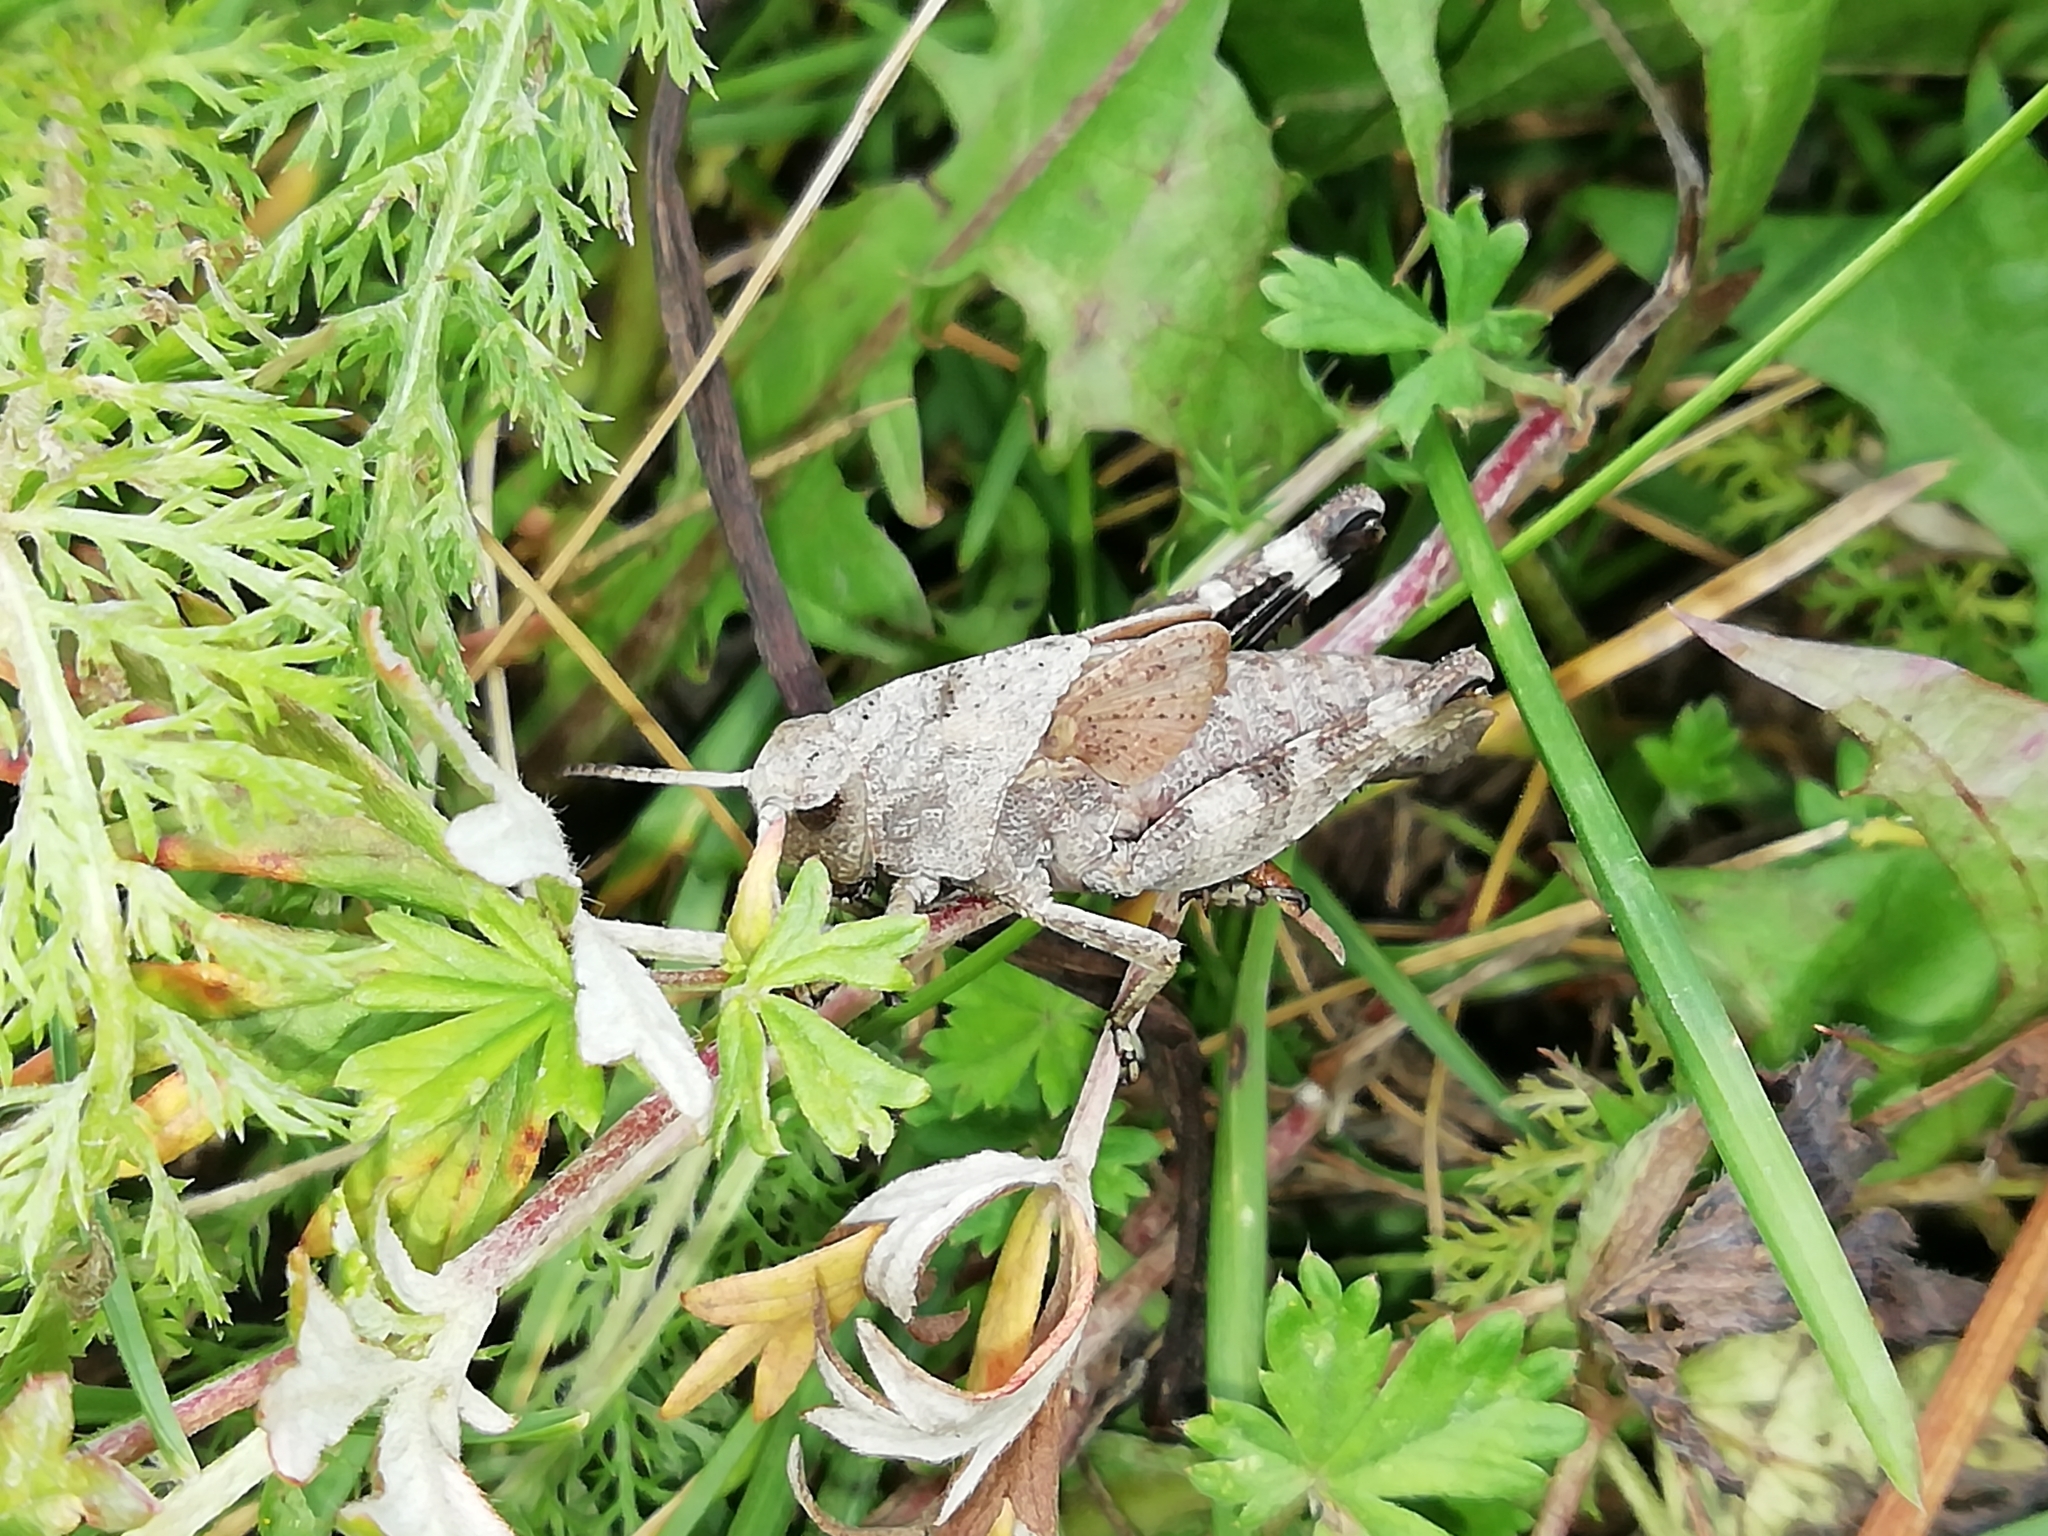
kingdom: Animalia
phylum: Arthropoda
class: Insecta
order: Orthoptera
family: Acrididae
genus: Psophus
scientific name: Psophus stridulus
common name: Rattle grasshopper
